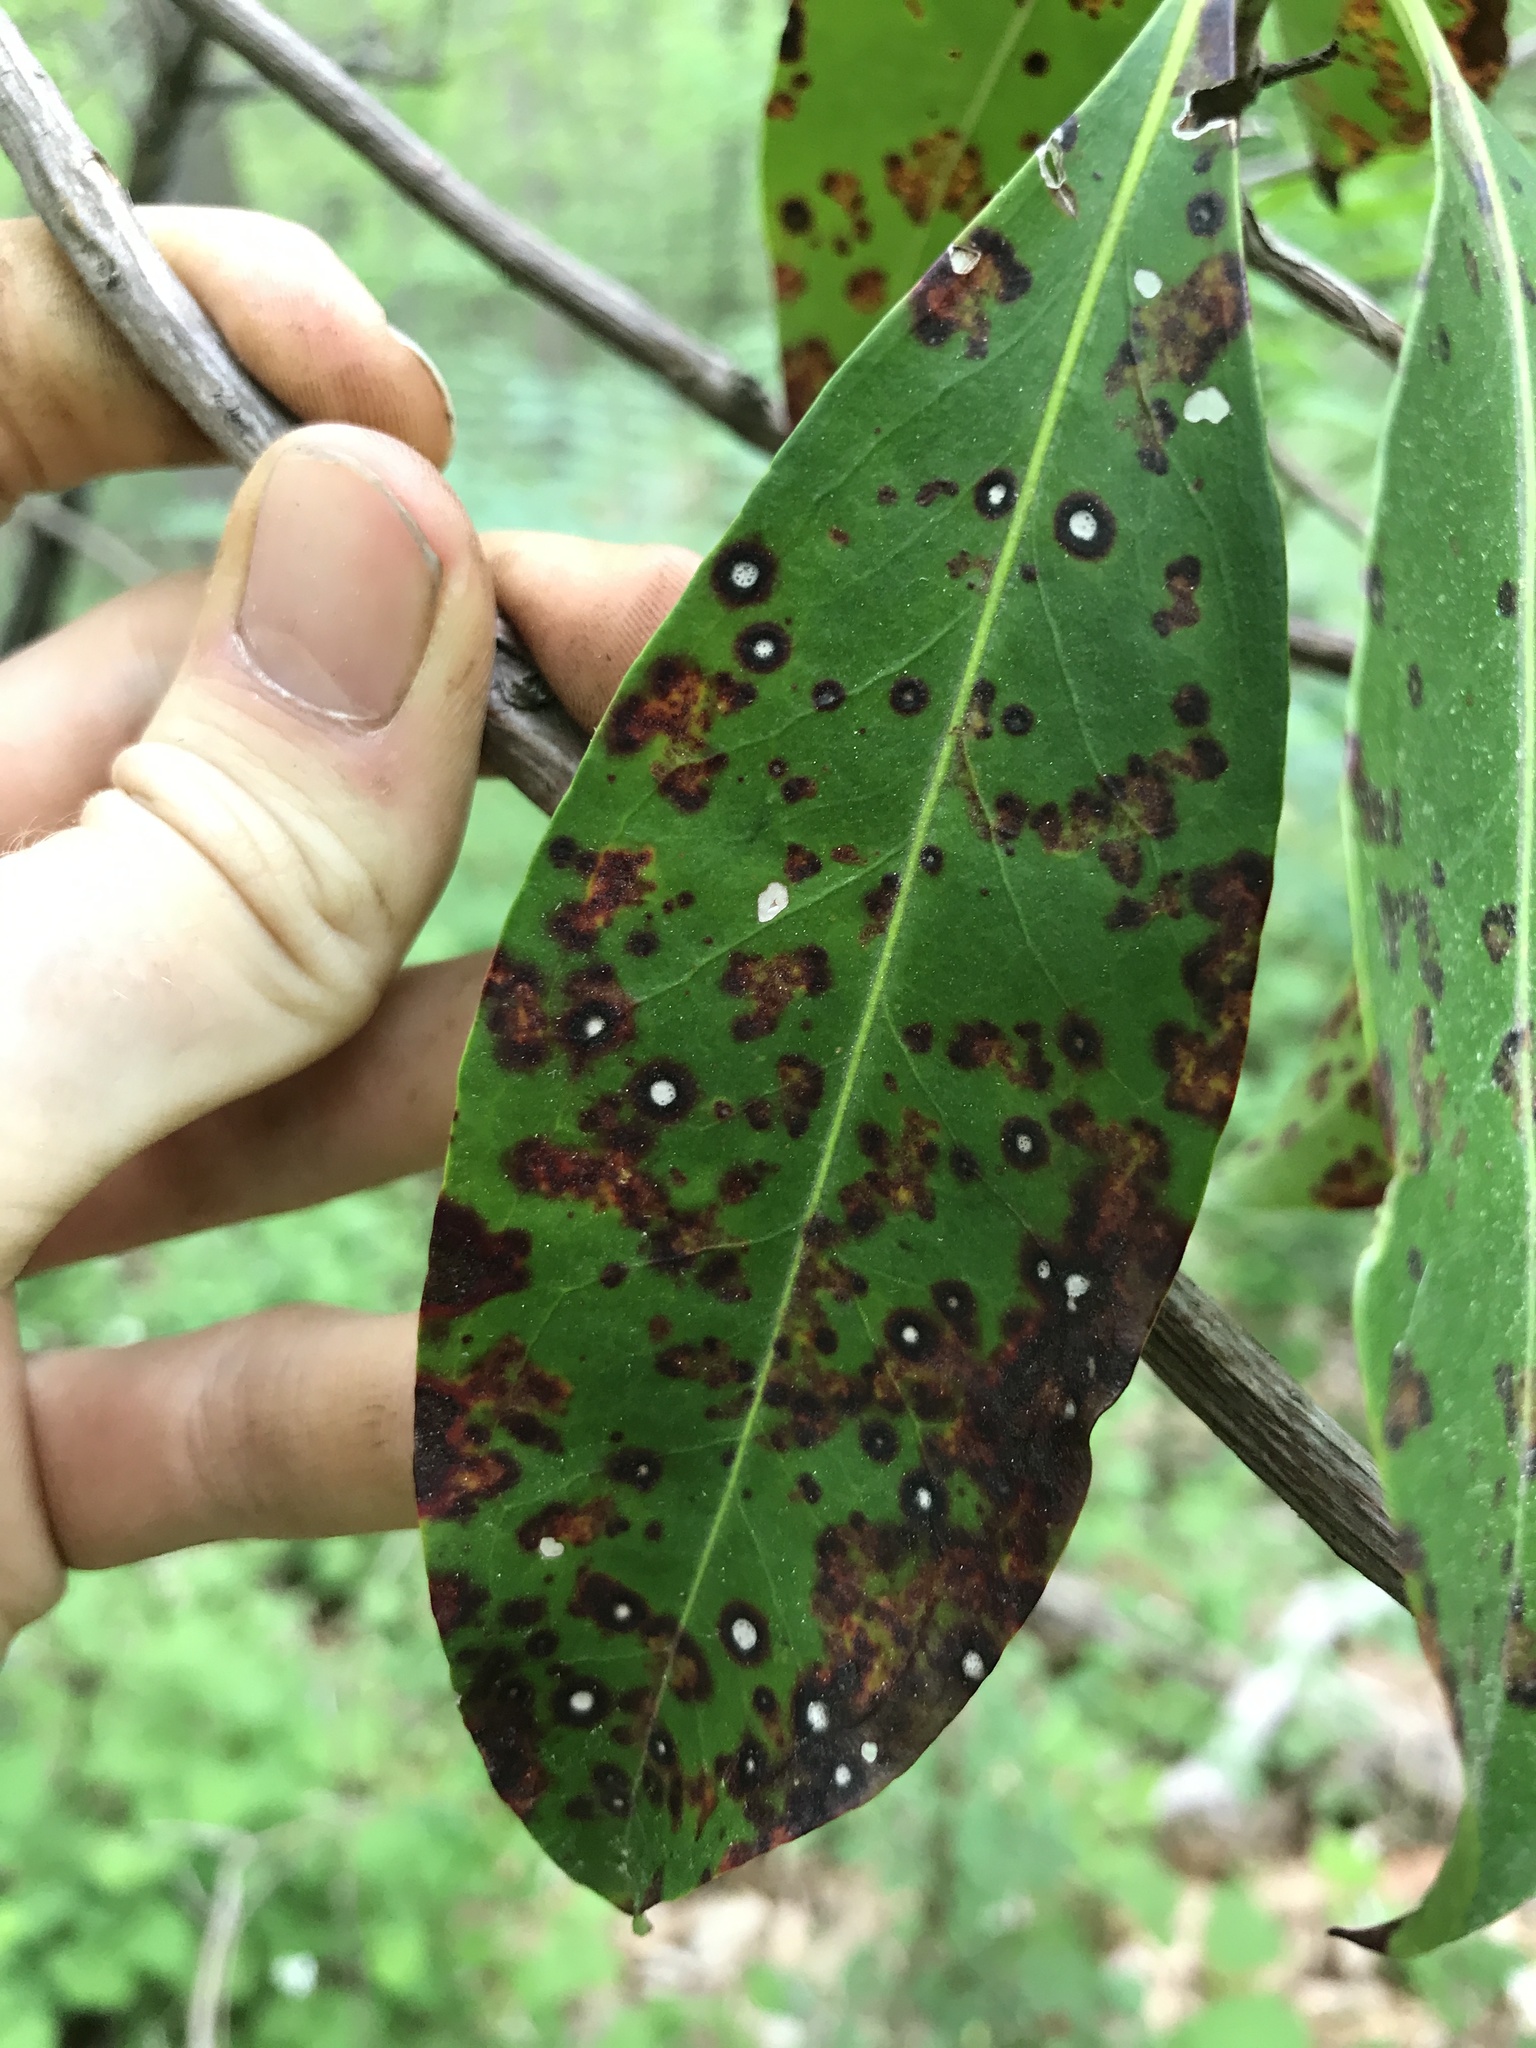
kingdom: Fungi
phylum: Ascomycota
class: Dothideomycetes
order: Mycosphaerellales
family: Mycosphaerellaceae
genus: Mycosphaerella
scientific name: Mycosphaerella colorata
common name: Mountain laurel leaf spot
